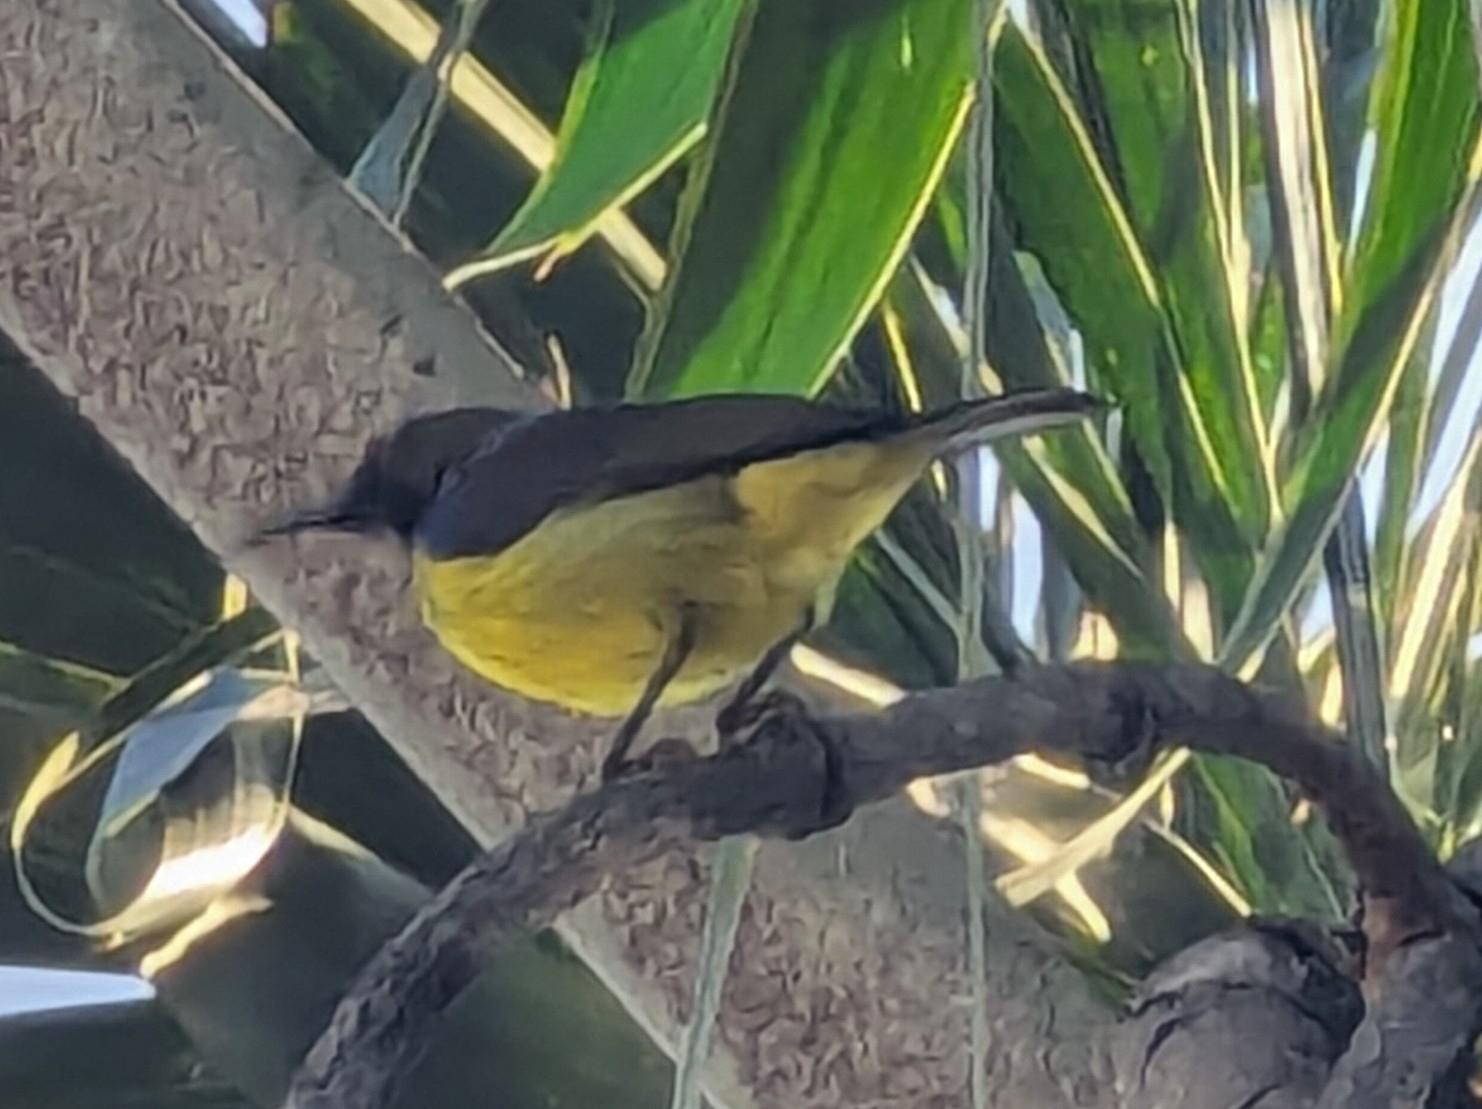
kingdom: Animalia
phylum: Chordata
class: Aves
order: Passeriformes
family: Nectariniidae
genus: Anthreptes
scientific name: Anthreptes malacensis
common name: Brown-throated sunbird
